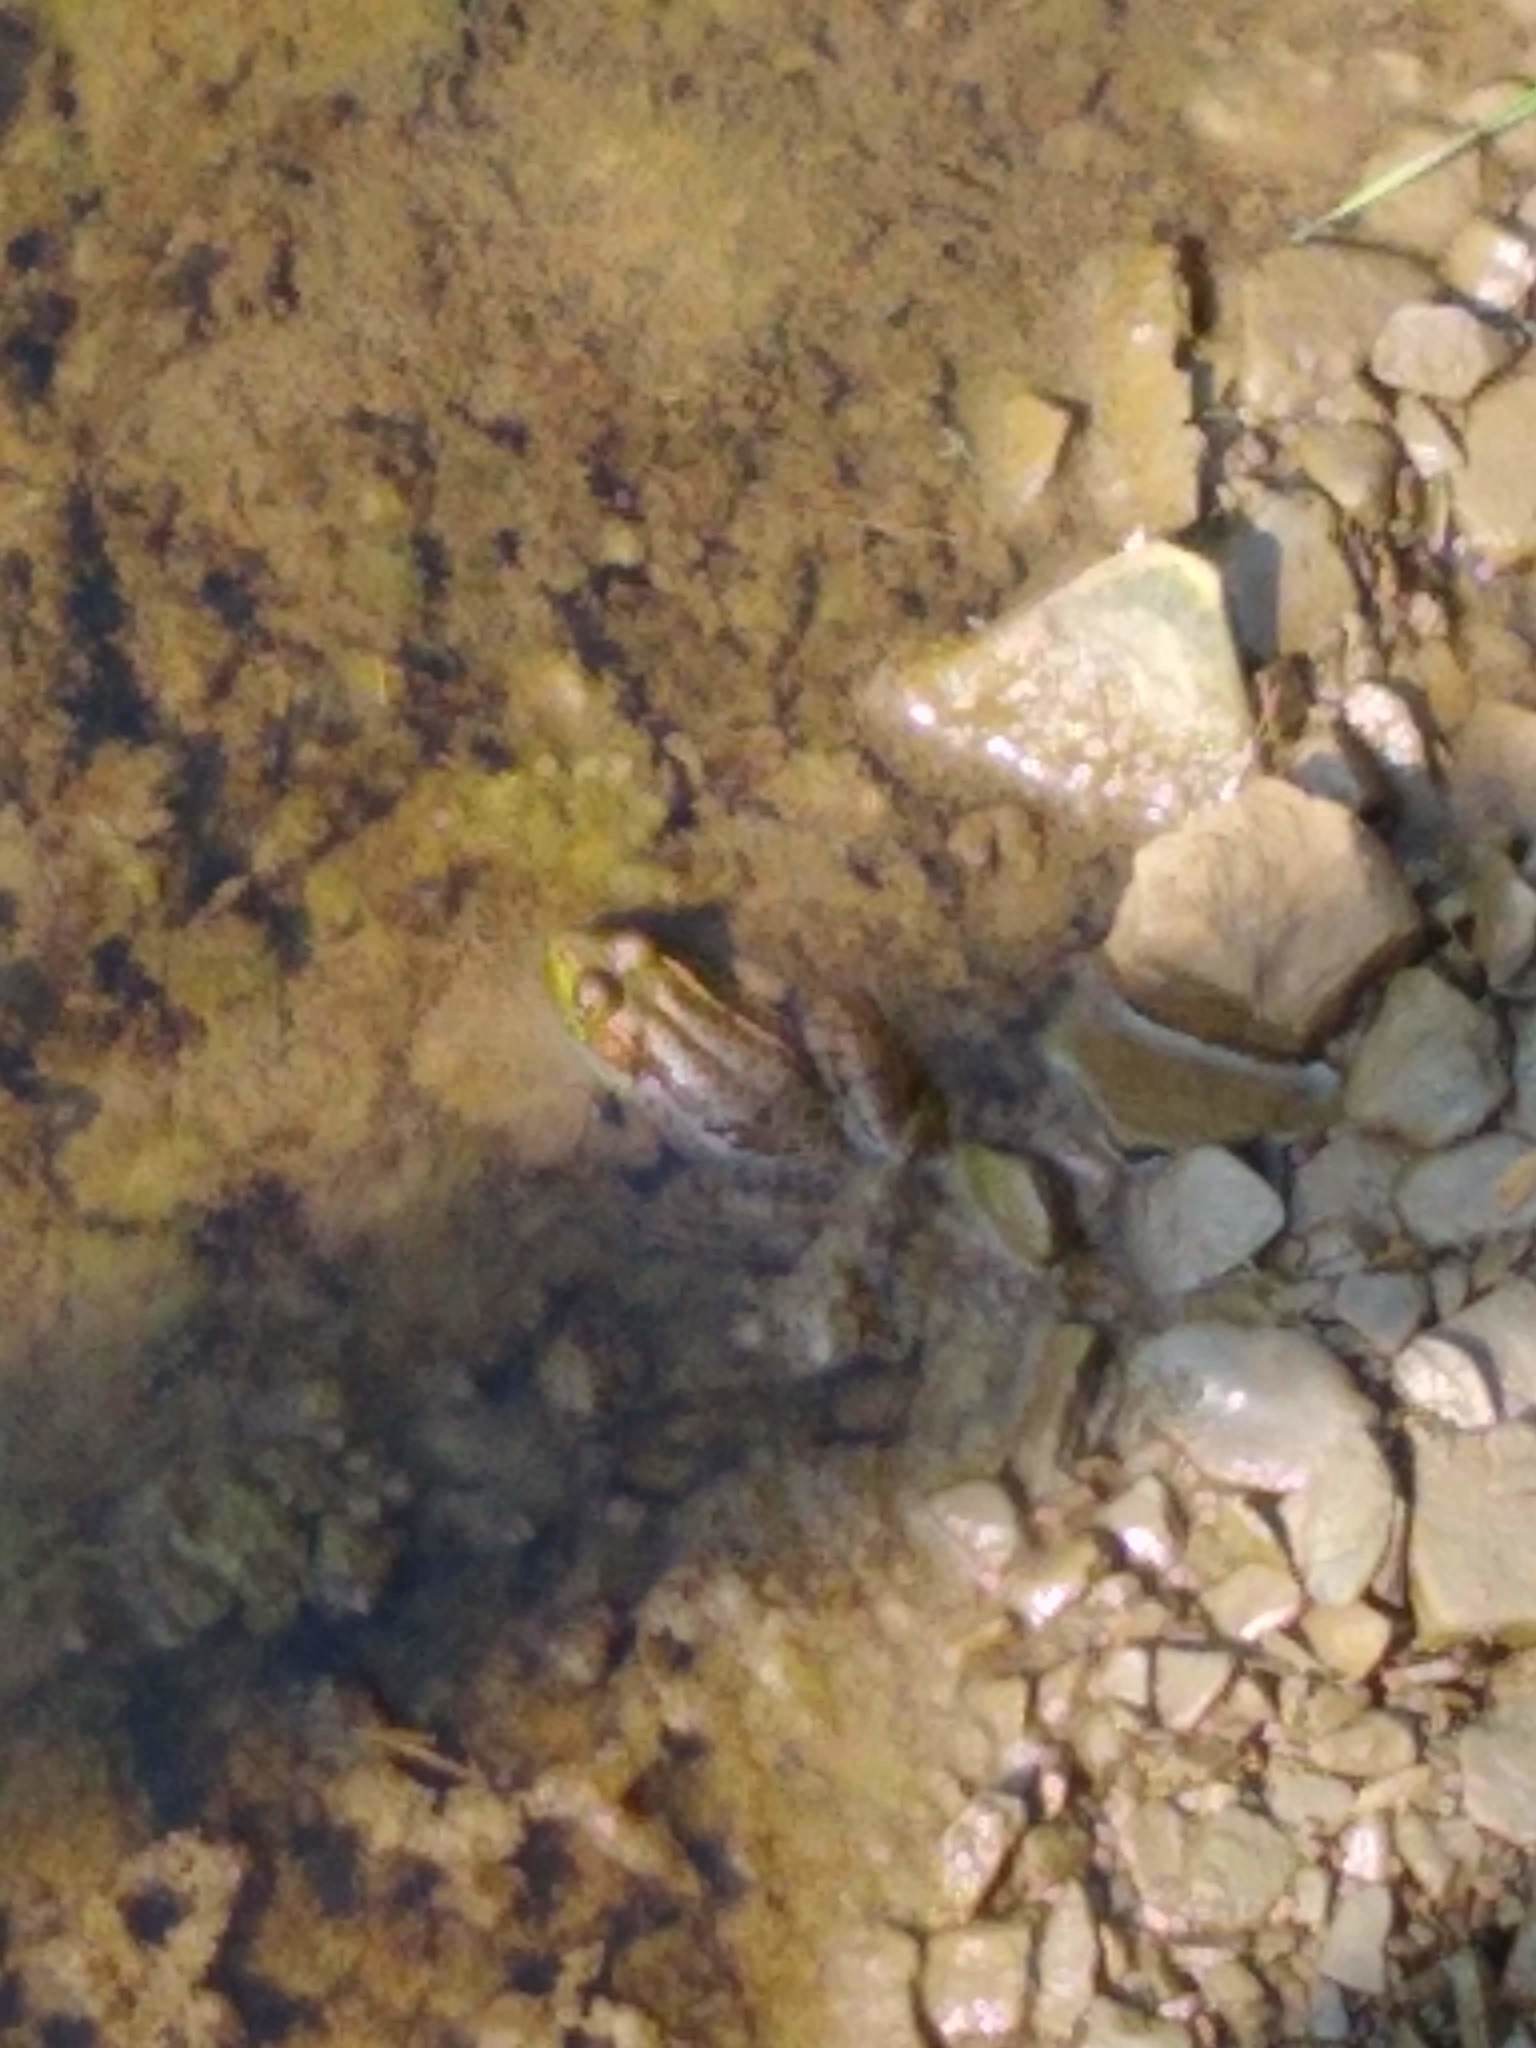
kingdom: Animalia
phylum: Chordata
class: Amphibia
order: Anura
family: Ranidae
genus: Lithobates
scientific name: Lithobates clamitans
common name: Green frog
